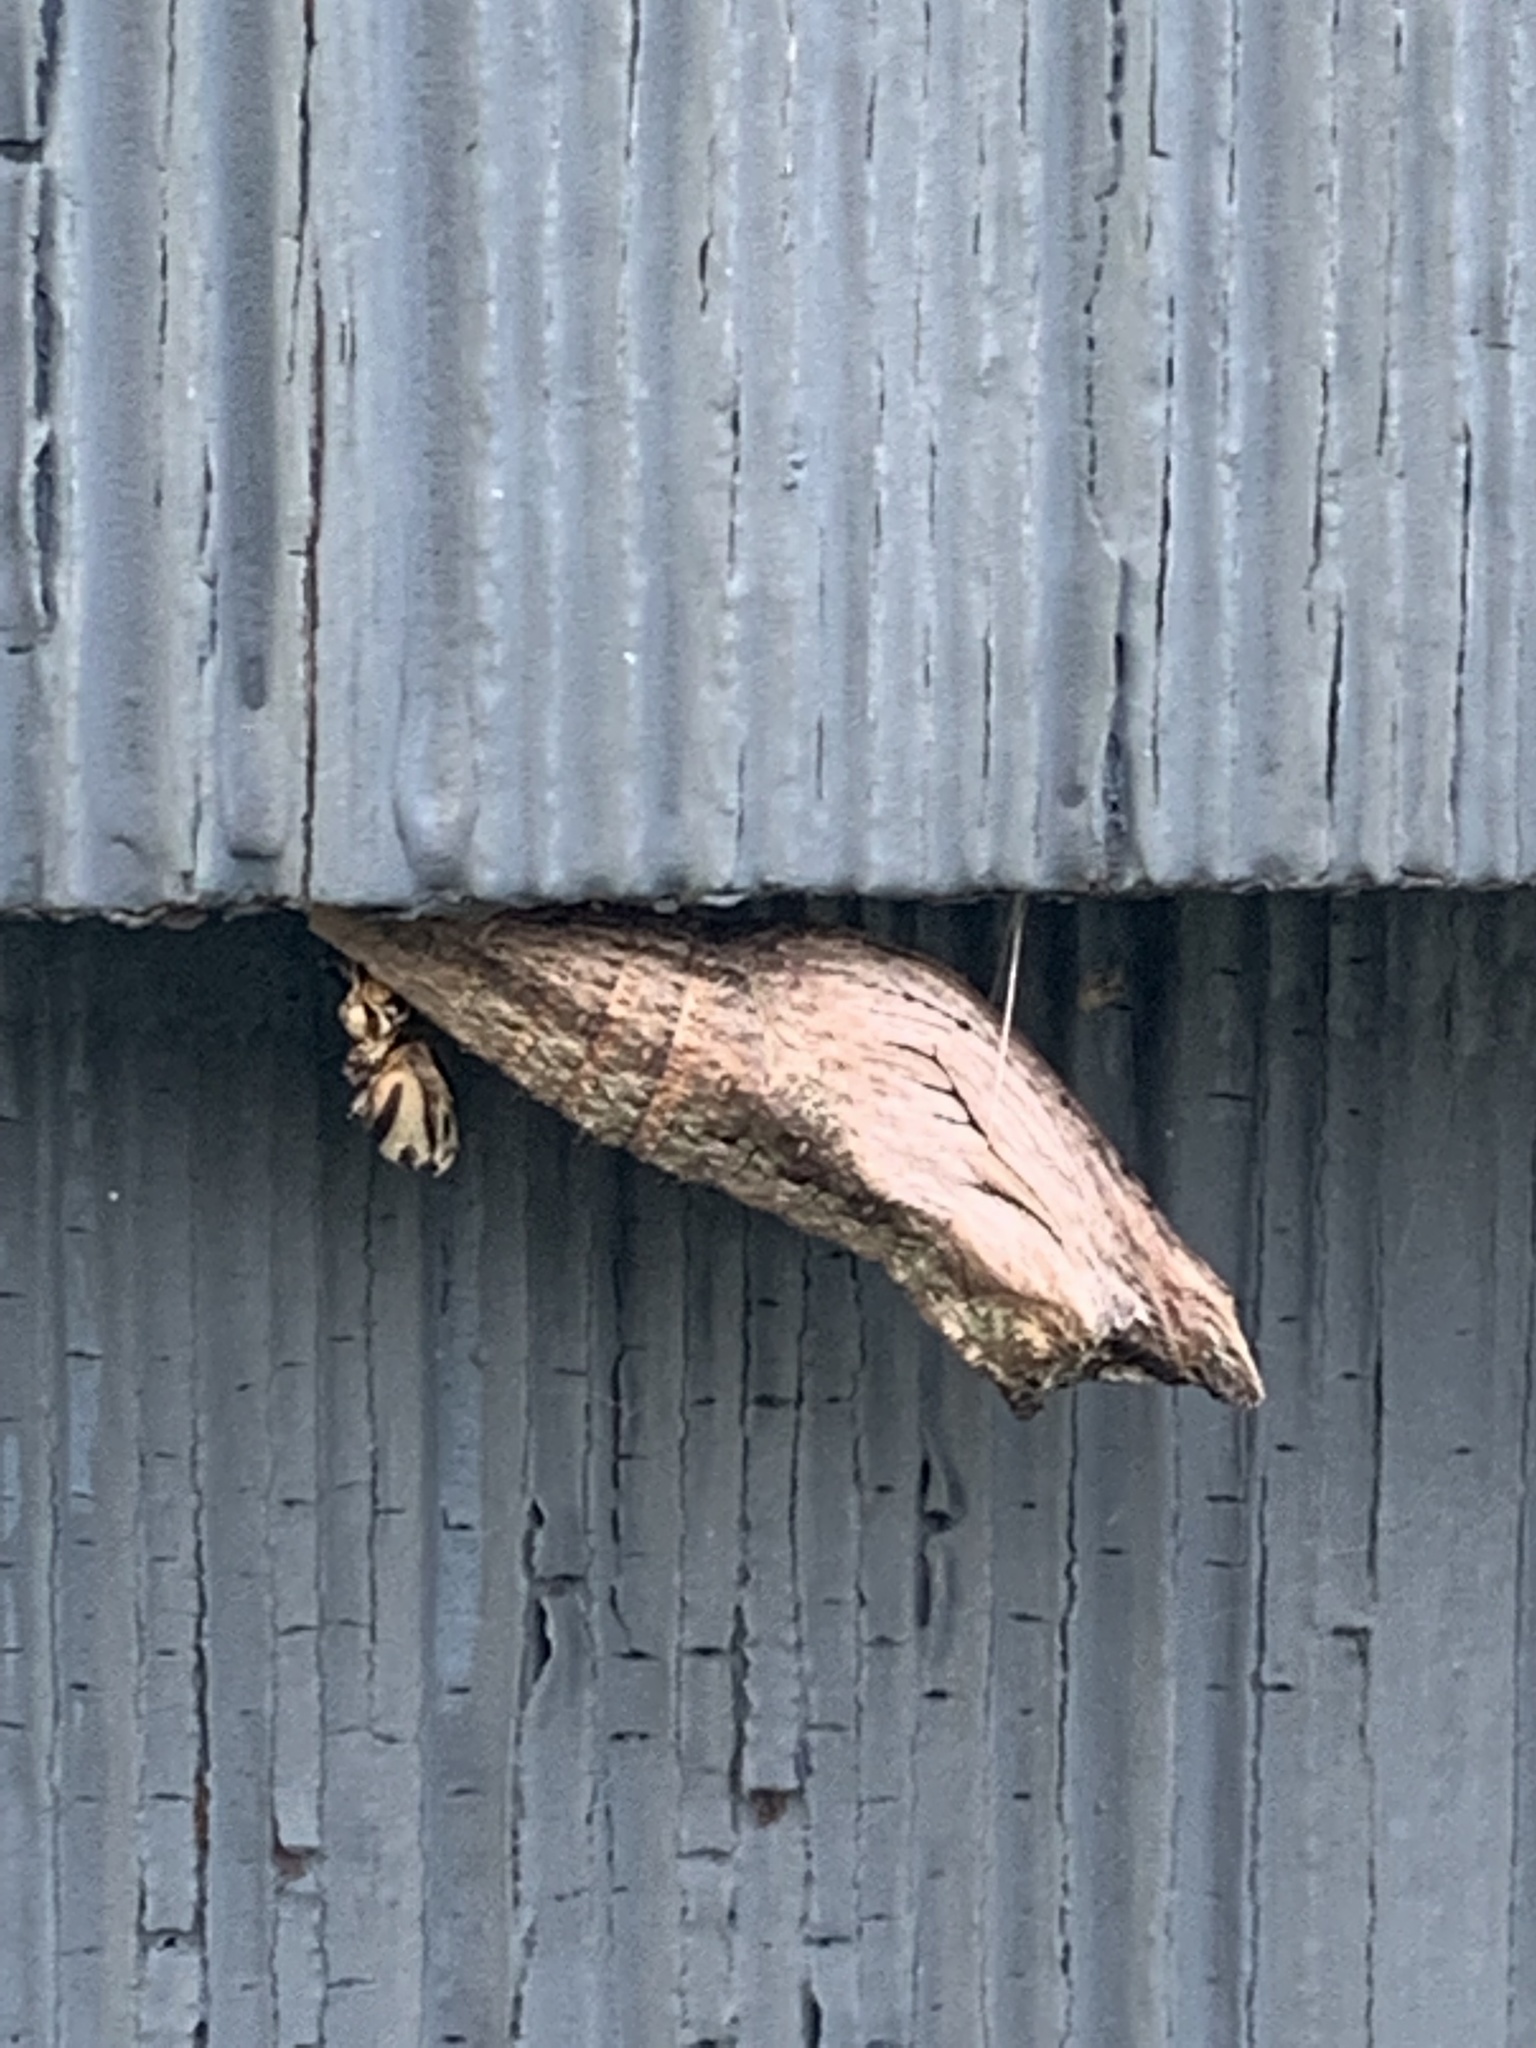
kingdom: Animalia
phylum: Arthropoda
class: Insecta
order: Lepidoptera
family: Papilionidae
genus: Papilio
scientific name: Papilio polyxenes
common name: Black swallowtail
